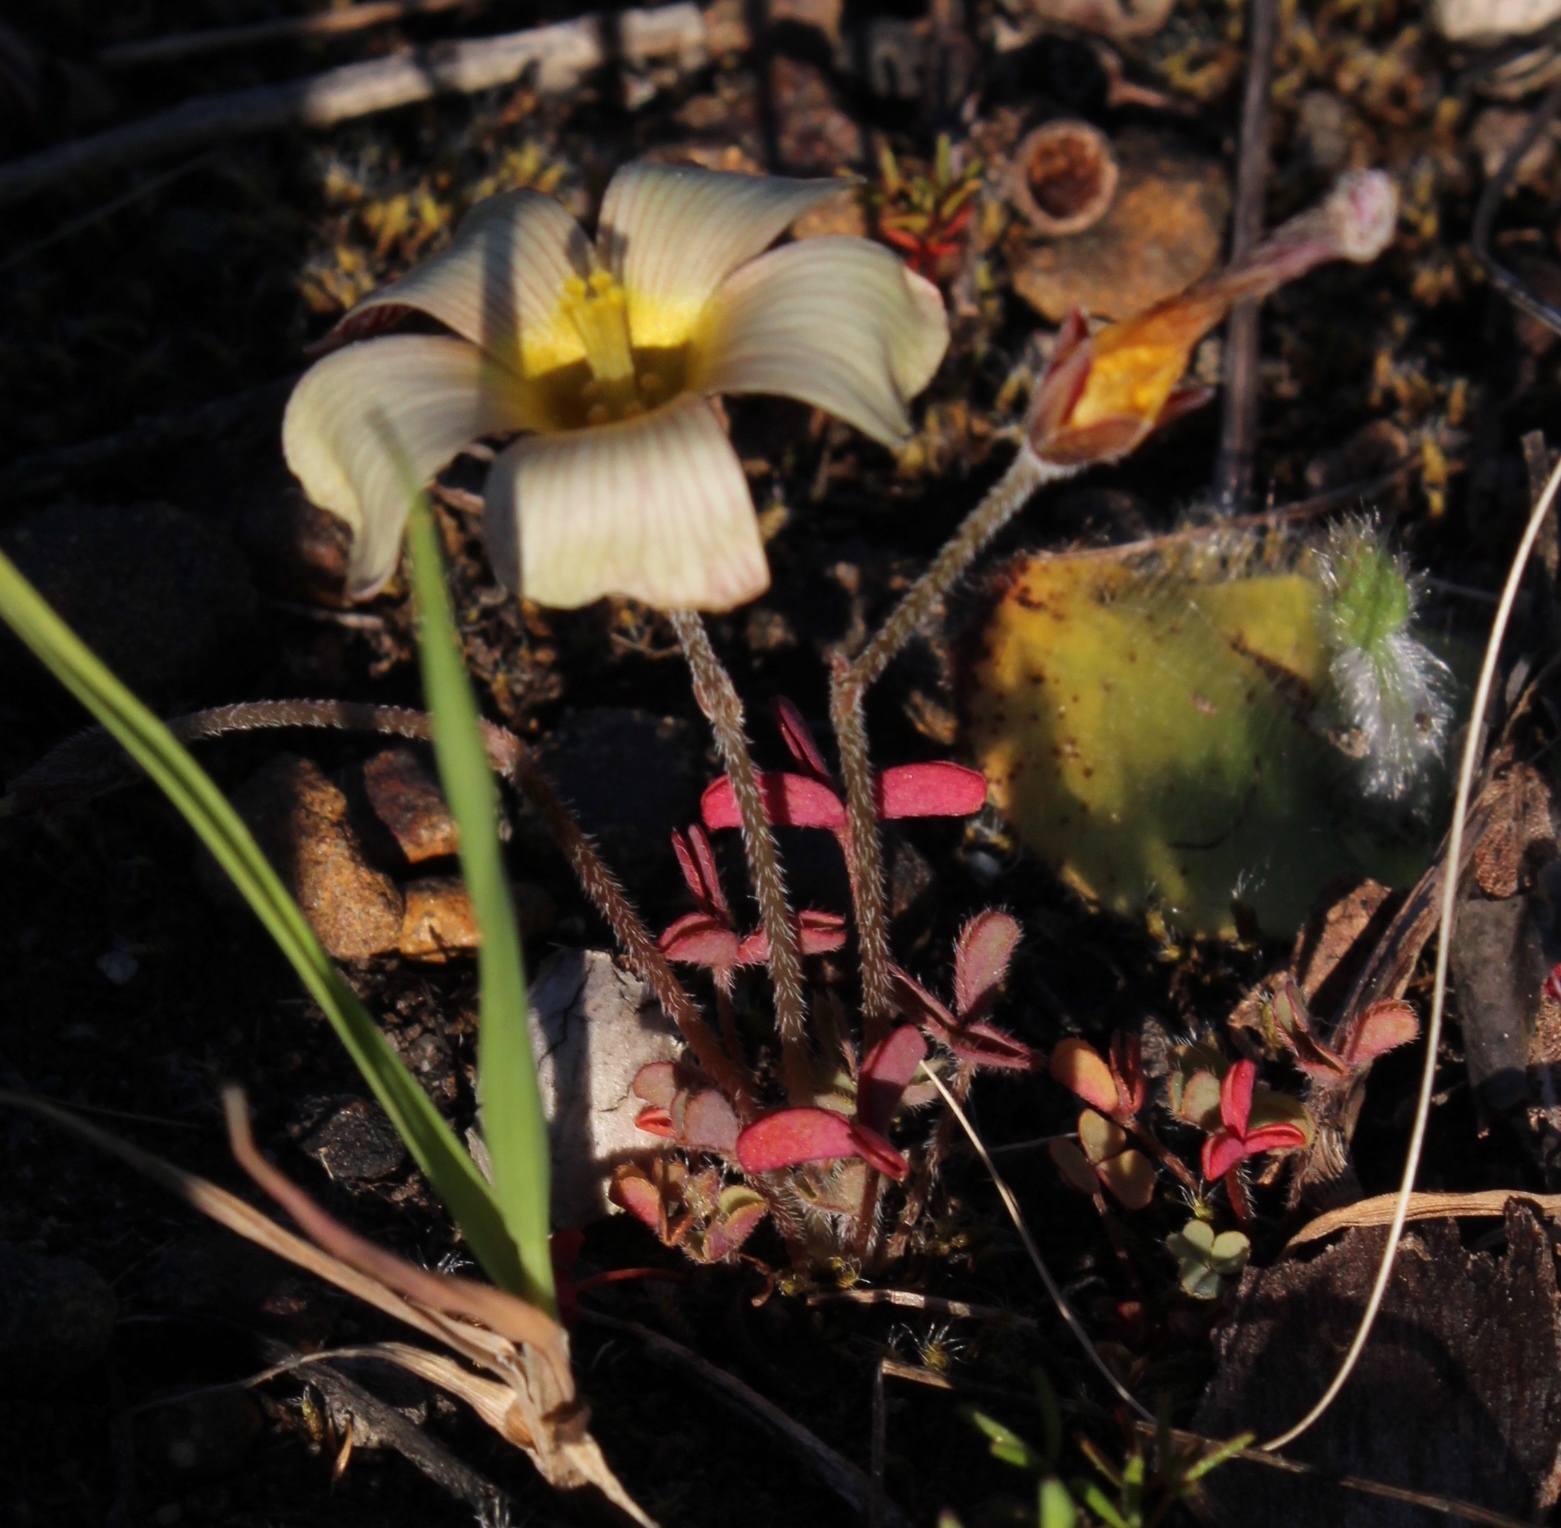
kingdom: Plantae
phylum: Tracheophyta
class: Magnoliopsida
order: Oxalidales
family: Oxalidaceae
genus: Oxalis
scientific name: Oxalis obtusa
